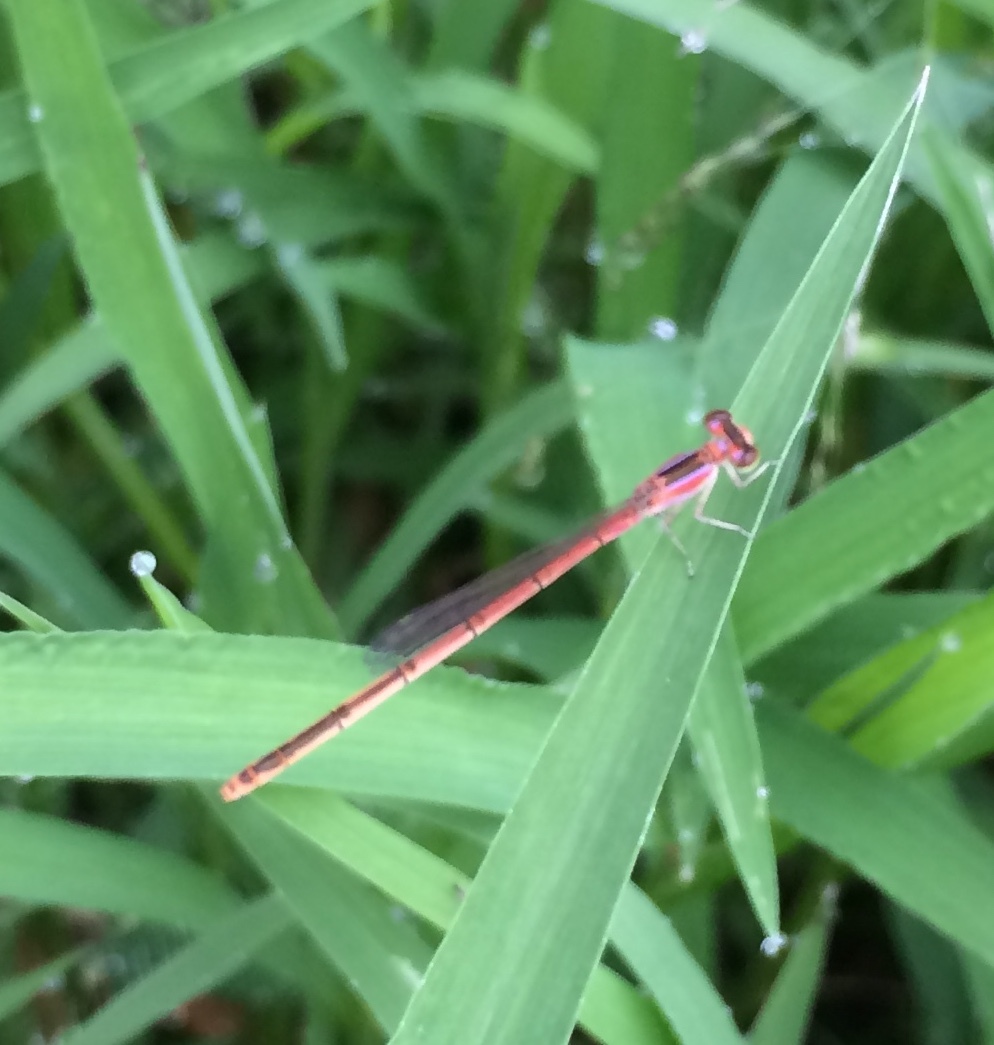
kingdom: Animalia
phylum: Arthropoda
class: Insecta
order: Odonata
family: Coenagrionidae
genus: Agriocnemis
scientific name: Agriocnemis pygmaea
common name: Pygmy wisp
